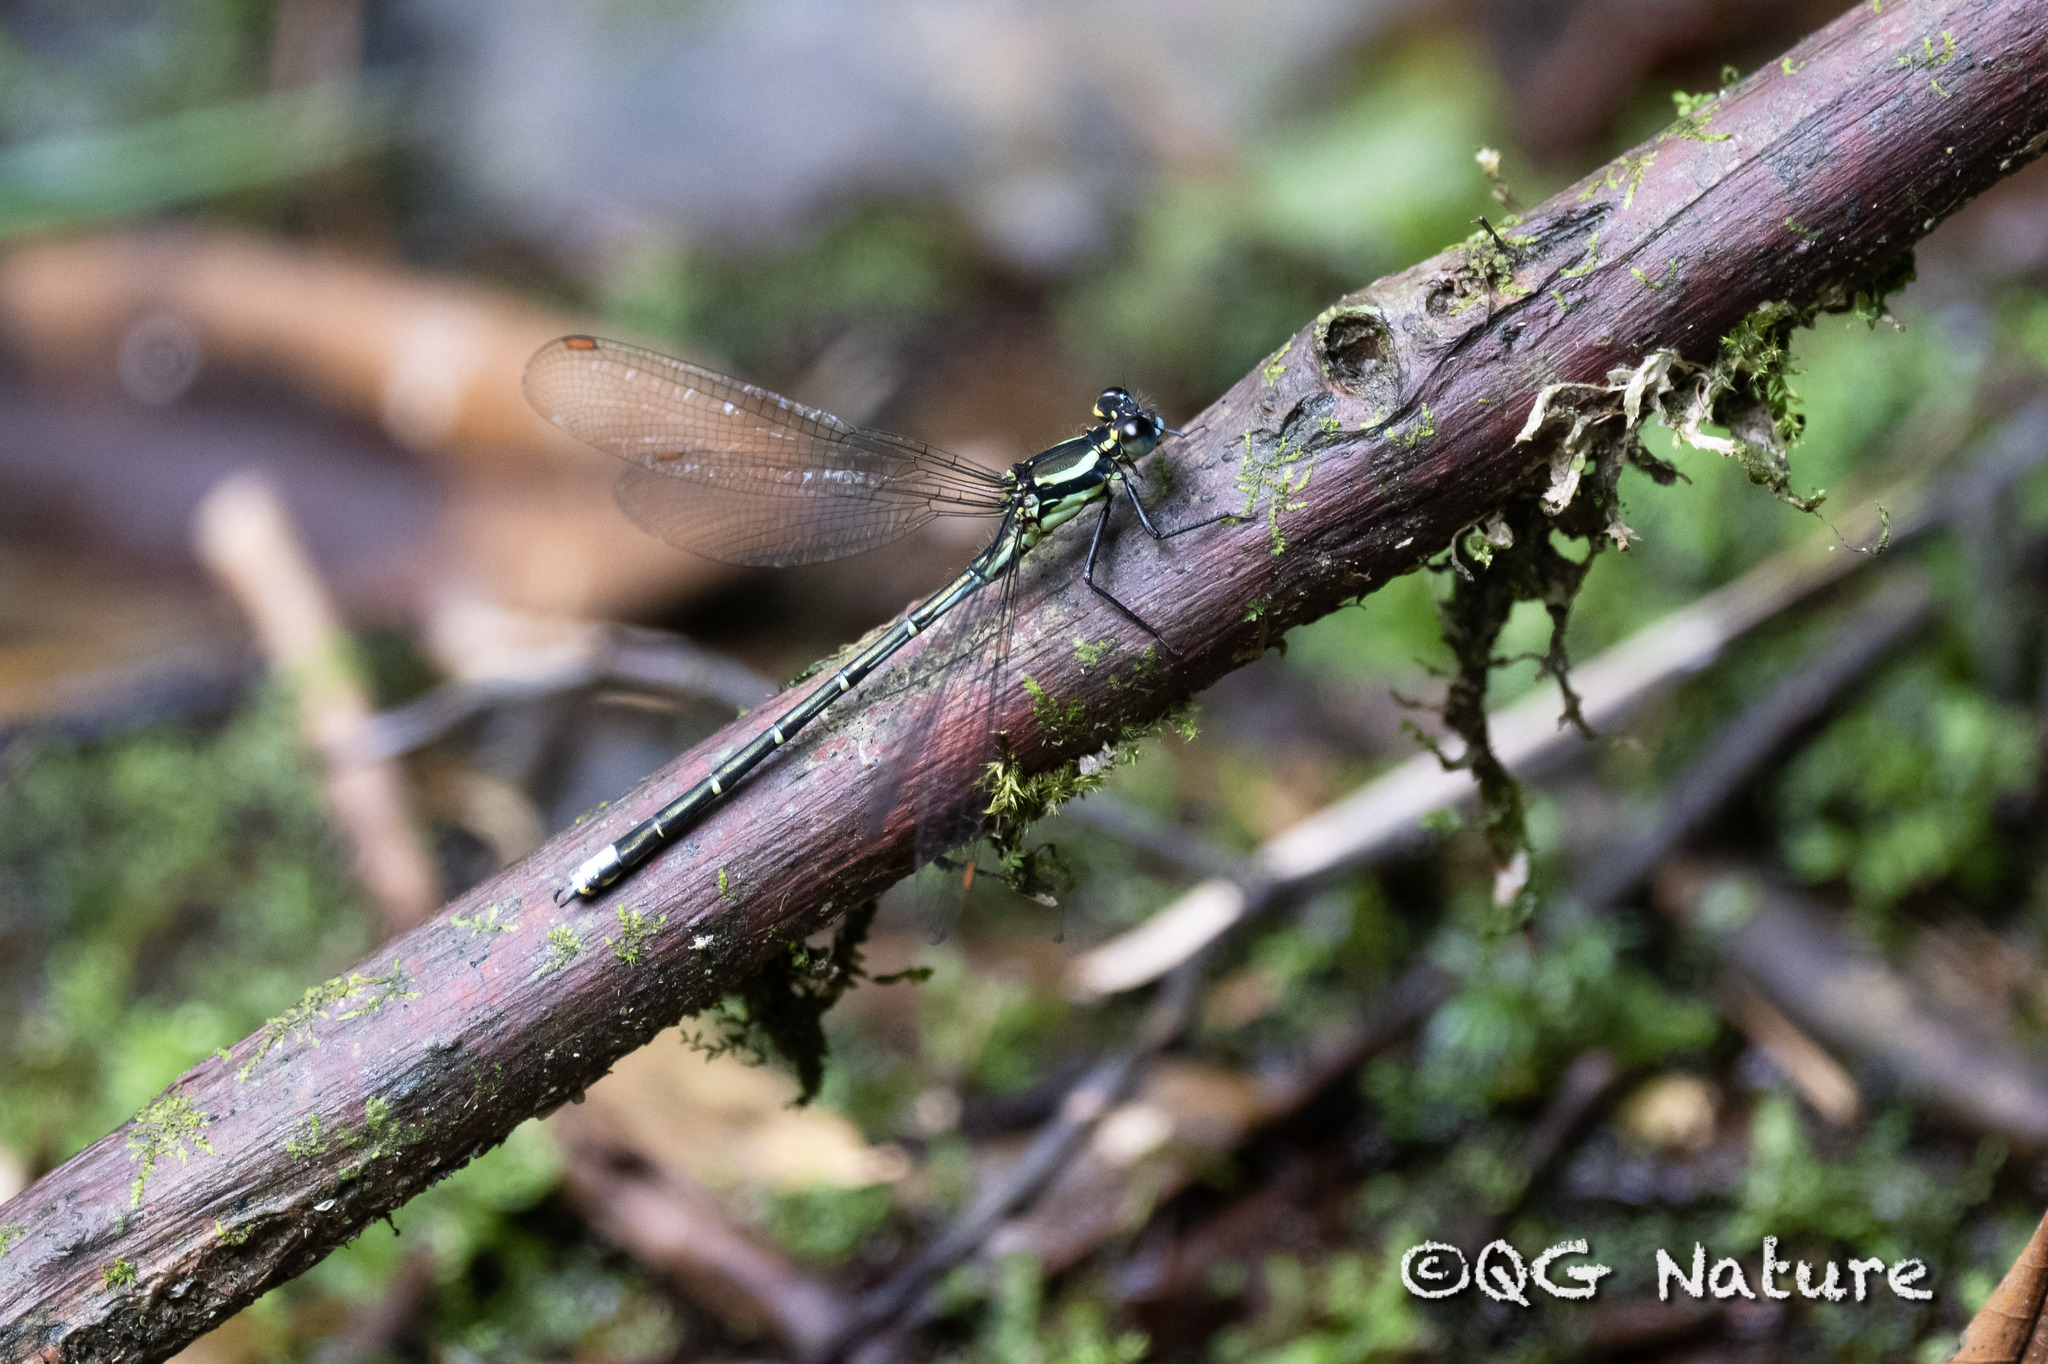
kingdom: Animalia
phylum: Arthropoda
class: Insecta
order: Odonata
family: Megapodagrionidae
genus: Mesopodagrion
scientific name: Mesopodagrion tibetanum
